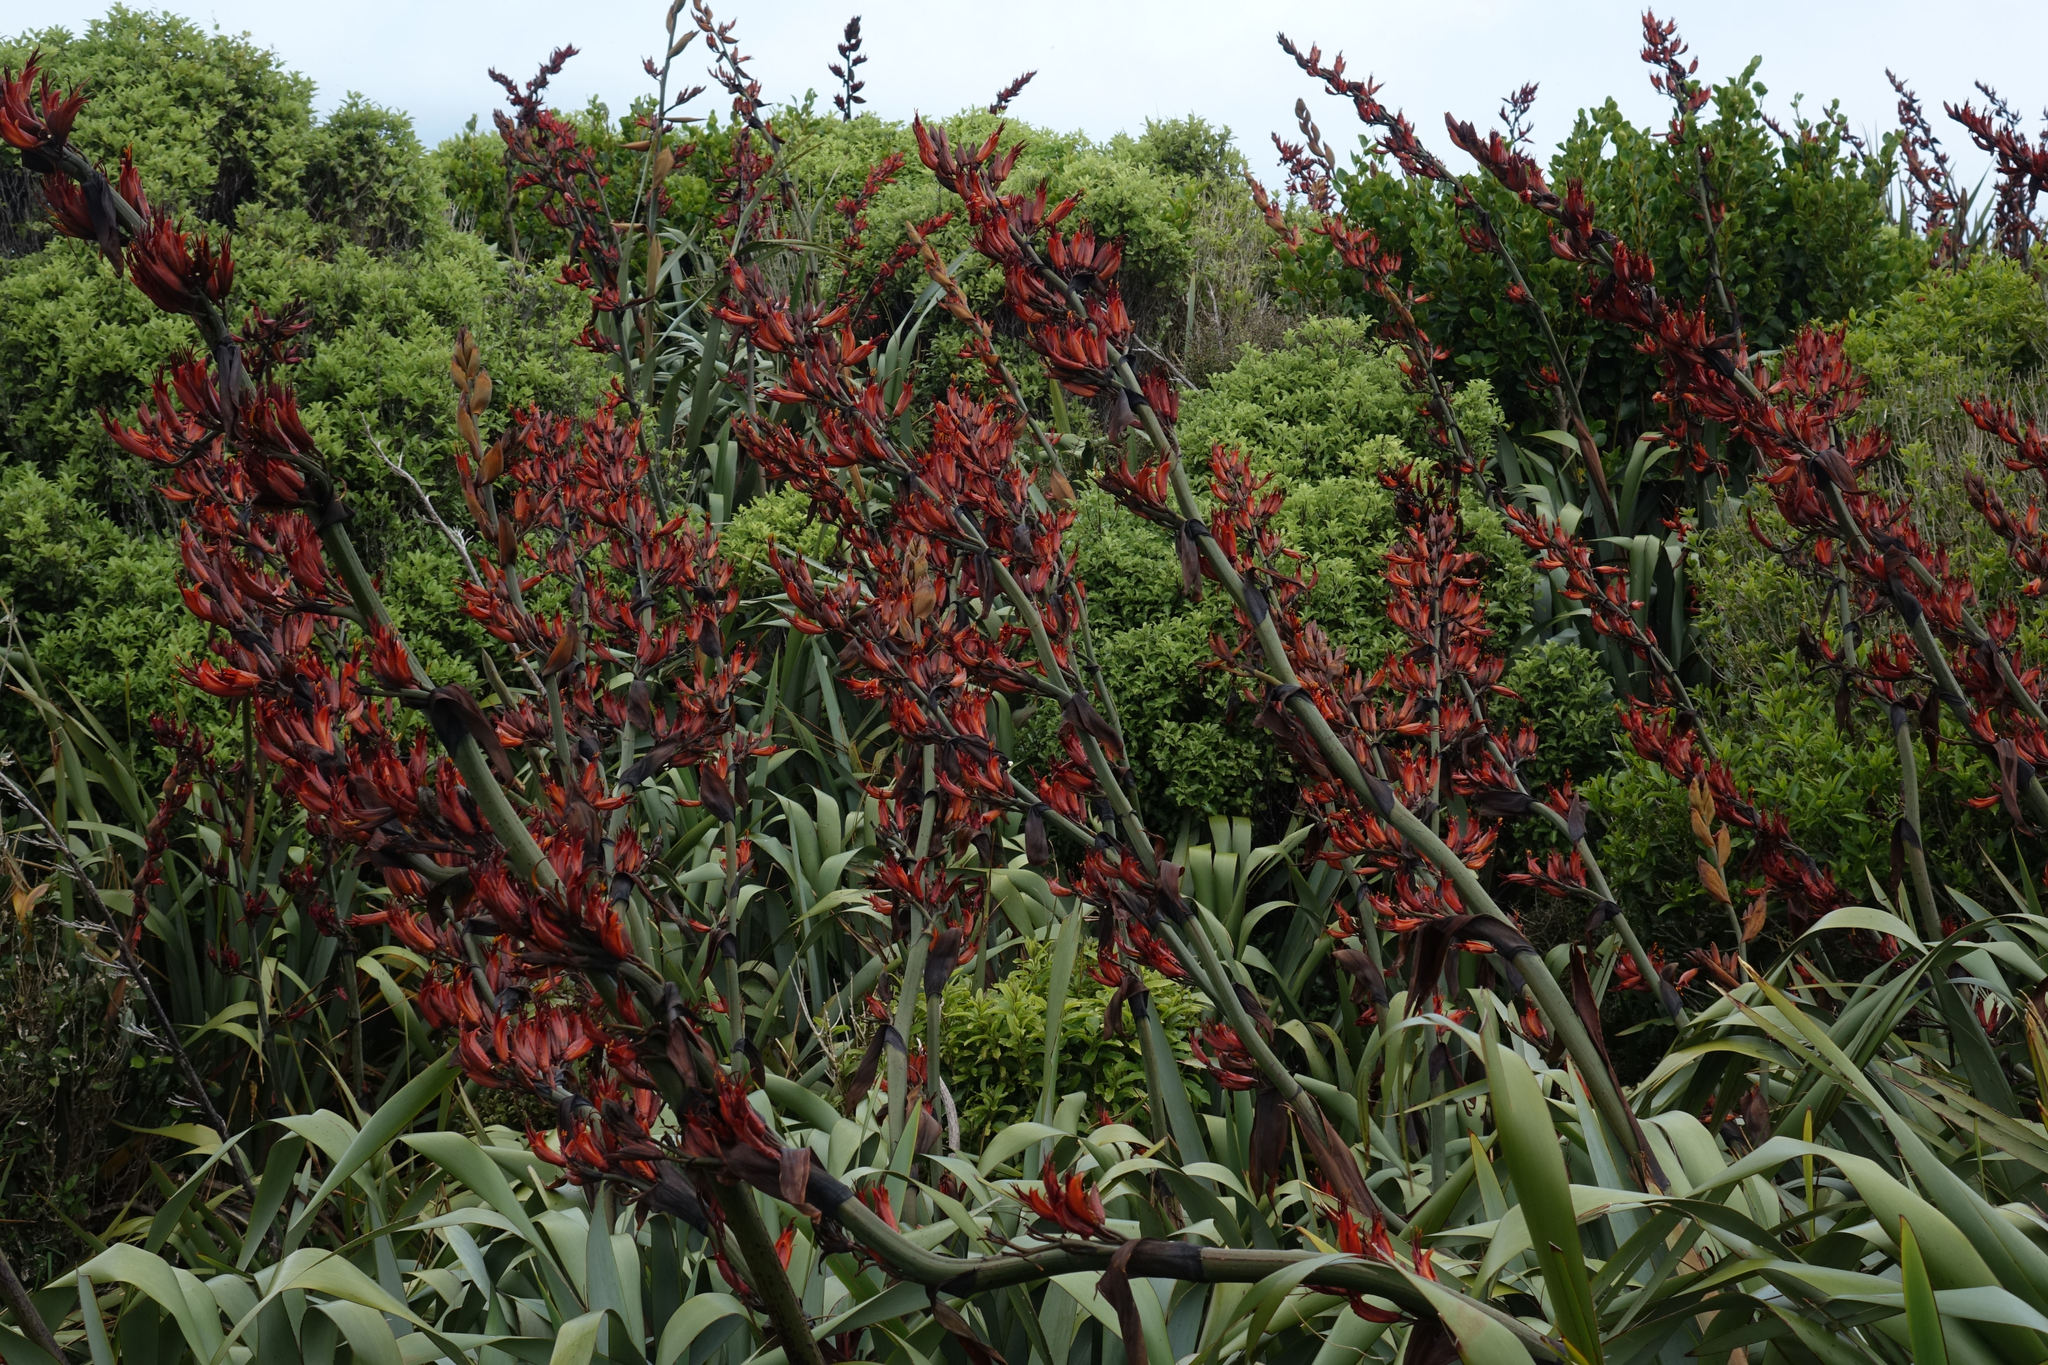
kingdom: Plantae
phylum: Tracheophyta
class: Liliopsida
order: Asparagales
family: Asphodelaceae
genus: Phormium
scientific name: Phormium tenax
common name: New zealand flax
